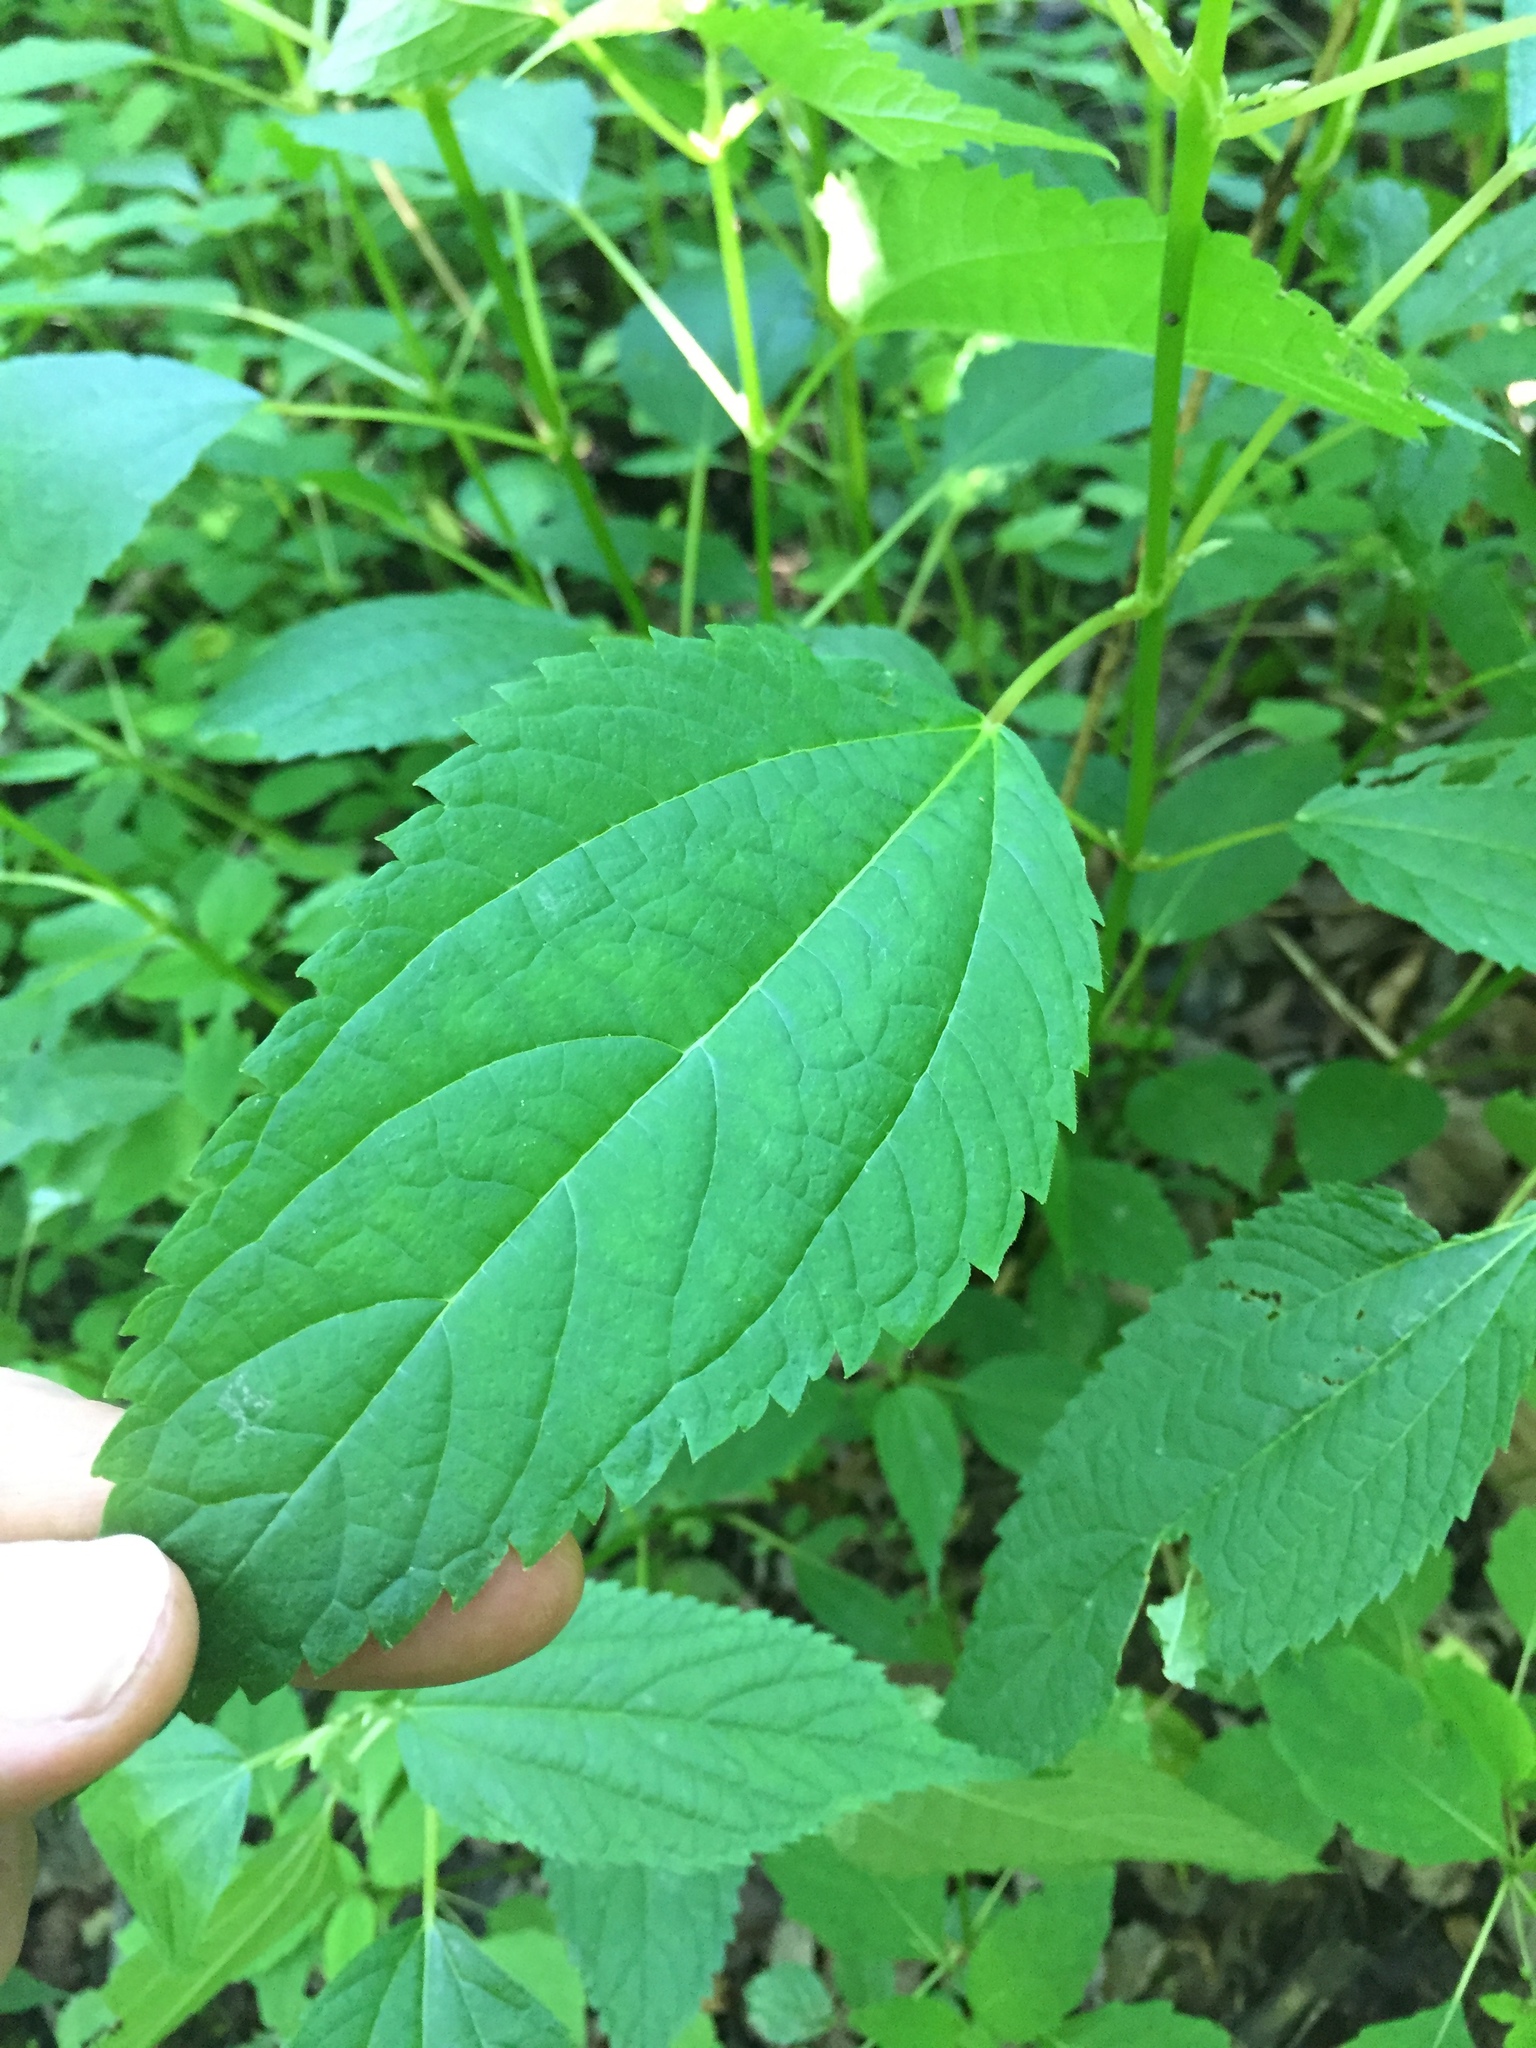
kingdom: Plantae
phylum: Tracheophyta
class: Magnoliopsida
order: Rosales
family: Urticaceae
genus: Boehmeria
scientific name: Boehmeria cylindrica
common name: Bog-hemp
